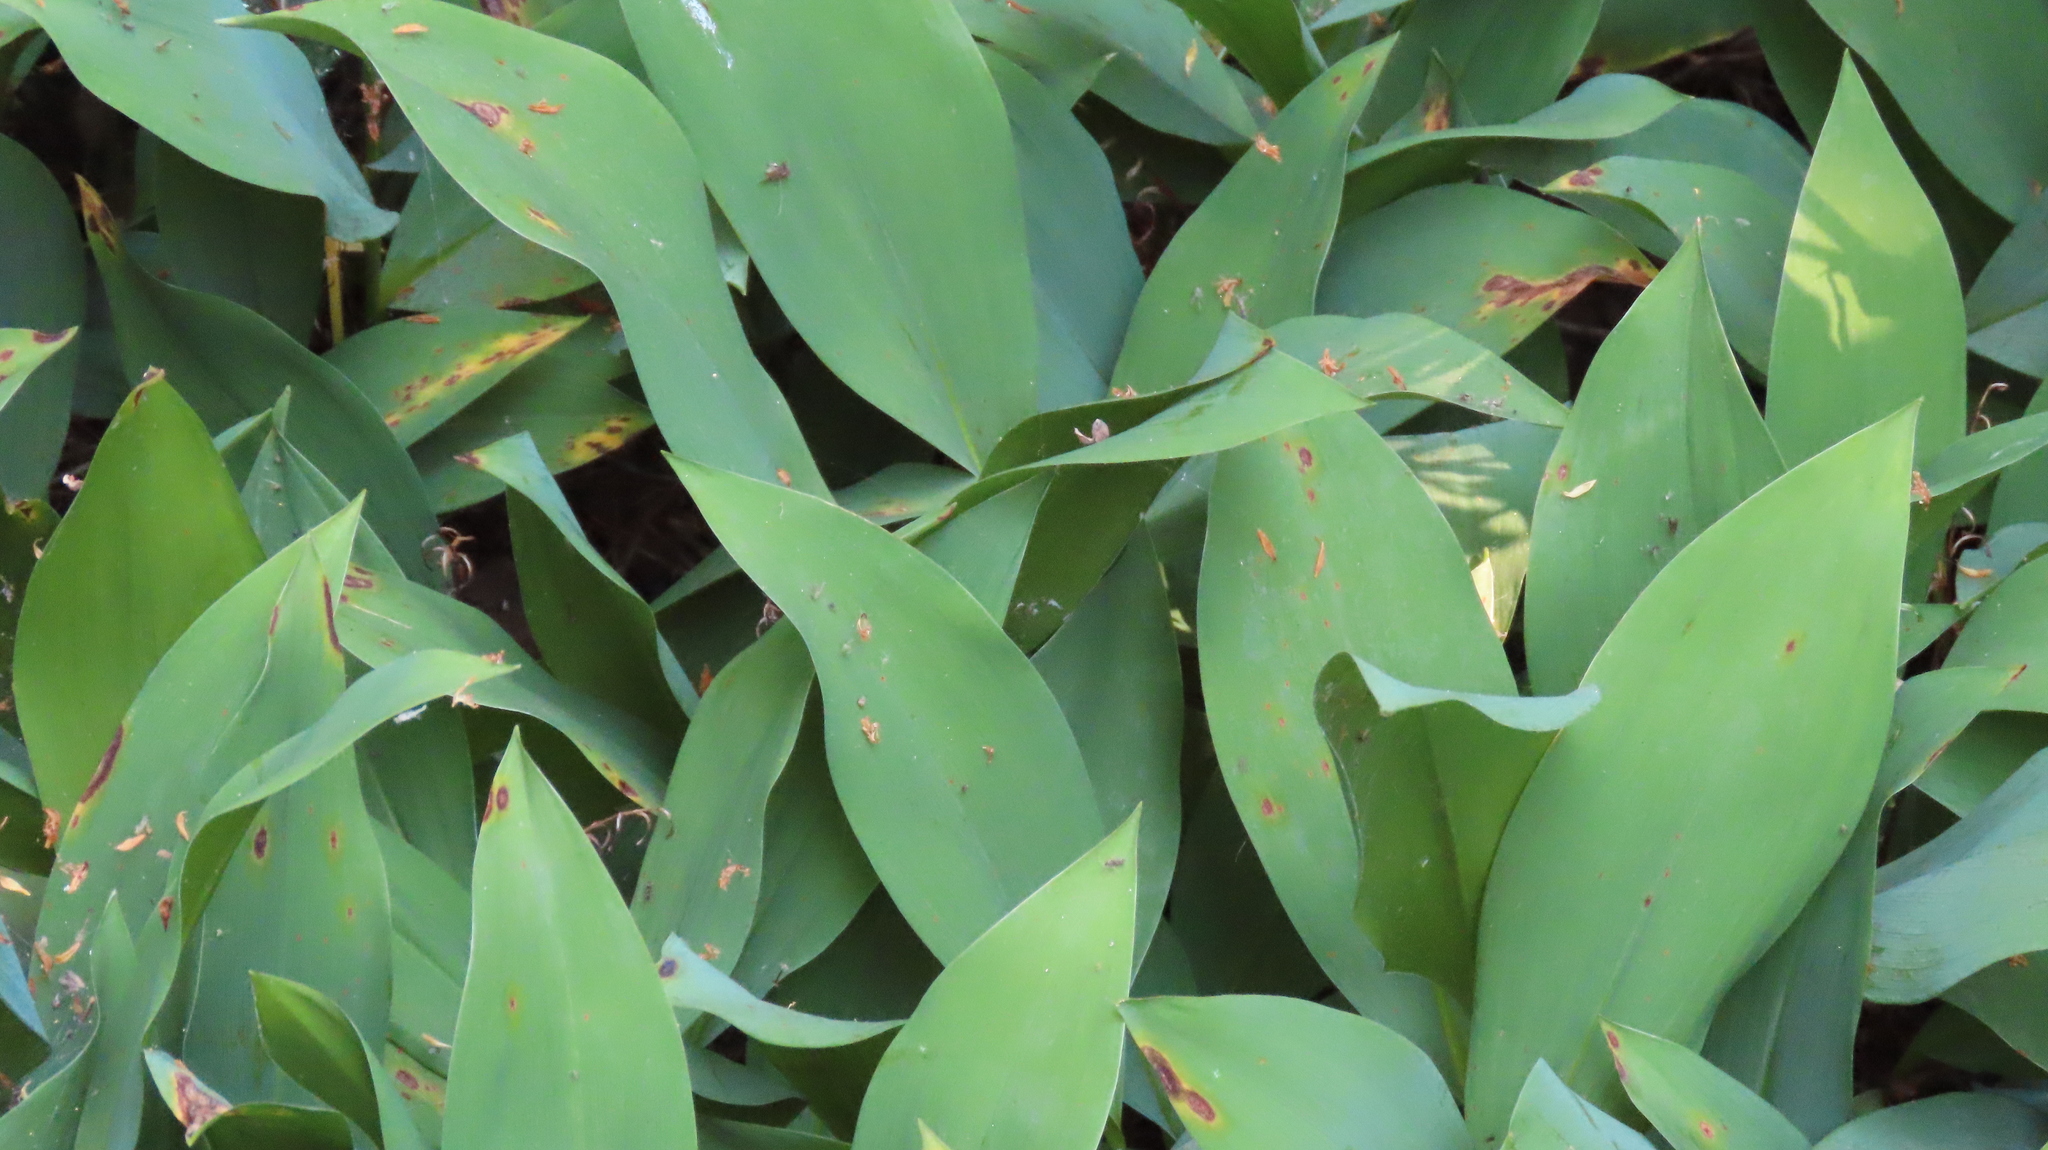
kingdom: Plantae
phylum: Tracheophyta
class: Liliopsida
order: Asparagales
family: Asparagaceae
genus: Convallaria
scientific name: Convallaria majalis
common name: Lily-of-the-valley
